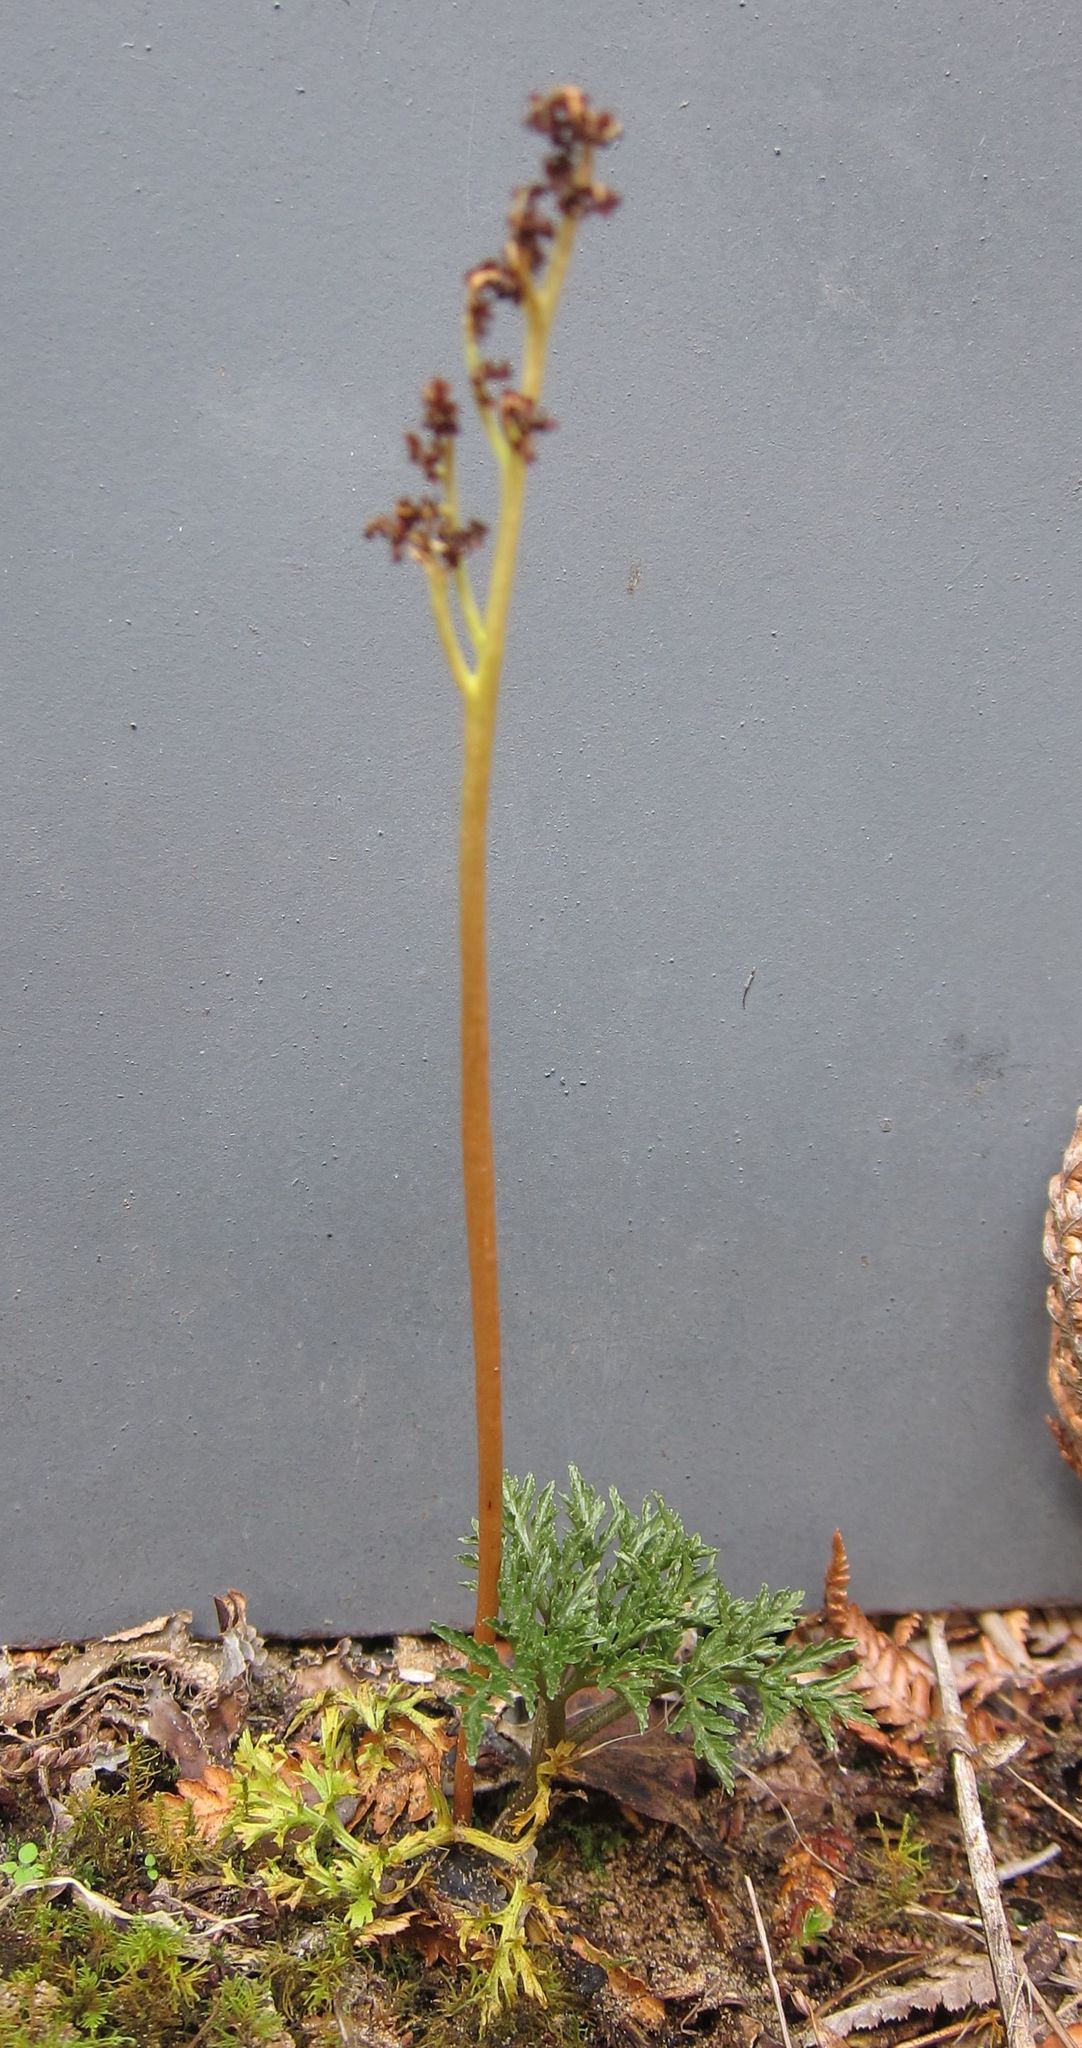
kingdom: Plantae
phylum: Tracheophyta
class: Polypodiopsida
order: Ophioglossales
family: Ophioglossaceae
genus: Sceptridium
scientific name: Sceptridium australe
